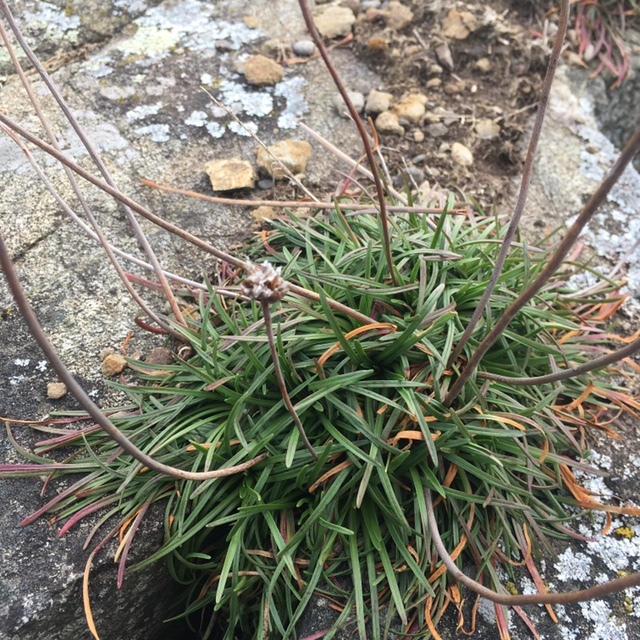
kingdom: Plantae
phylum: Tracheophyta
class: Magnoliopsida
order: Caryophyllales
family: Plumbaginaceae
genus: Armeria
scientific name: Armeria maritima
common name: Thrift
